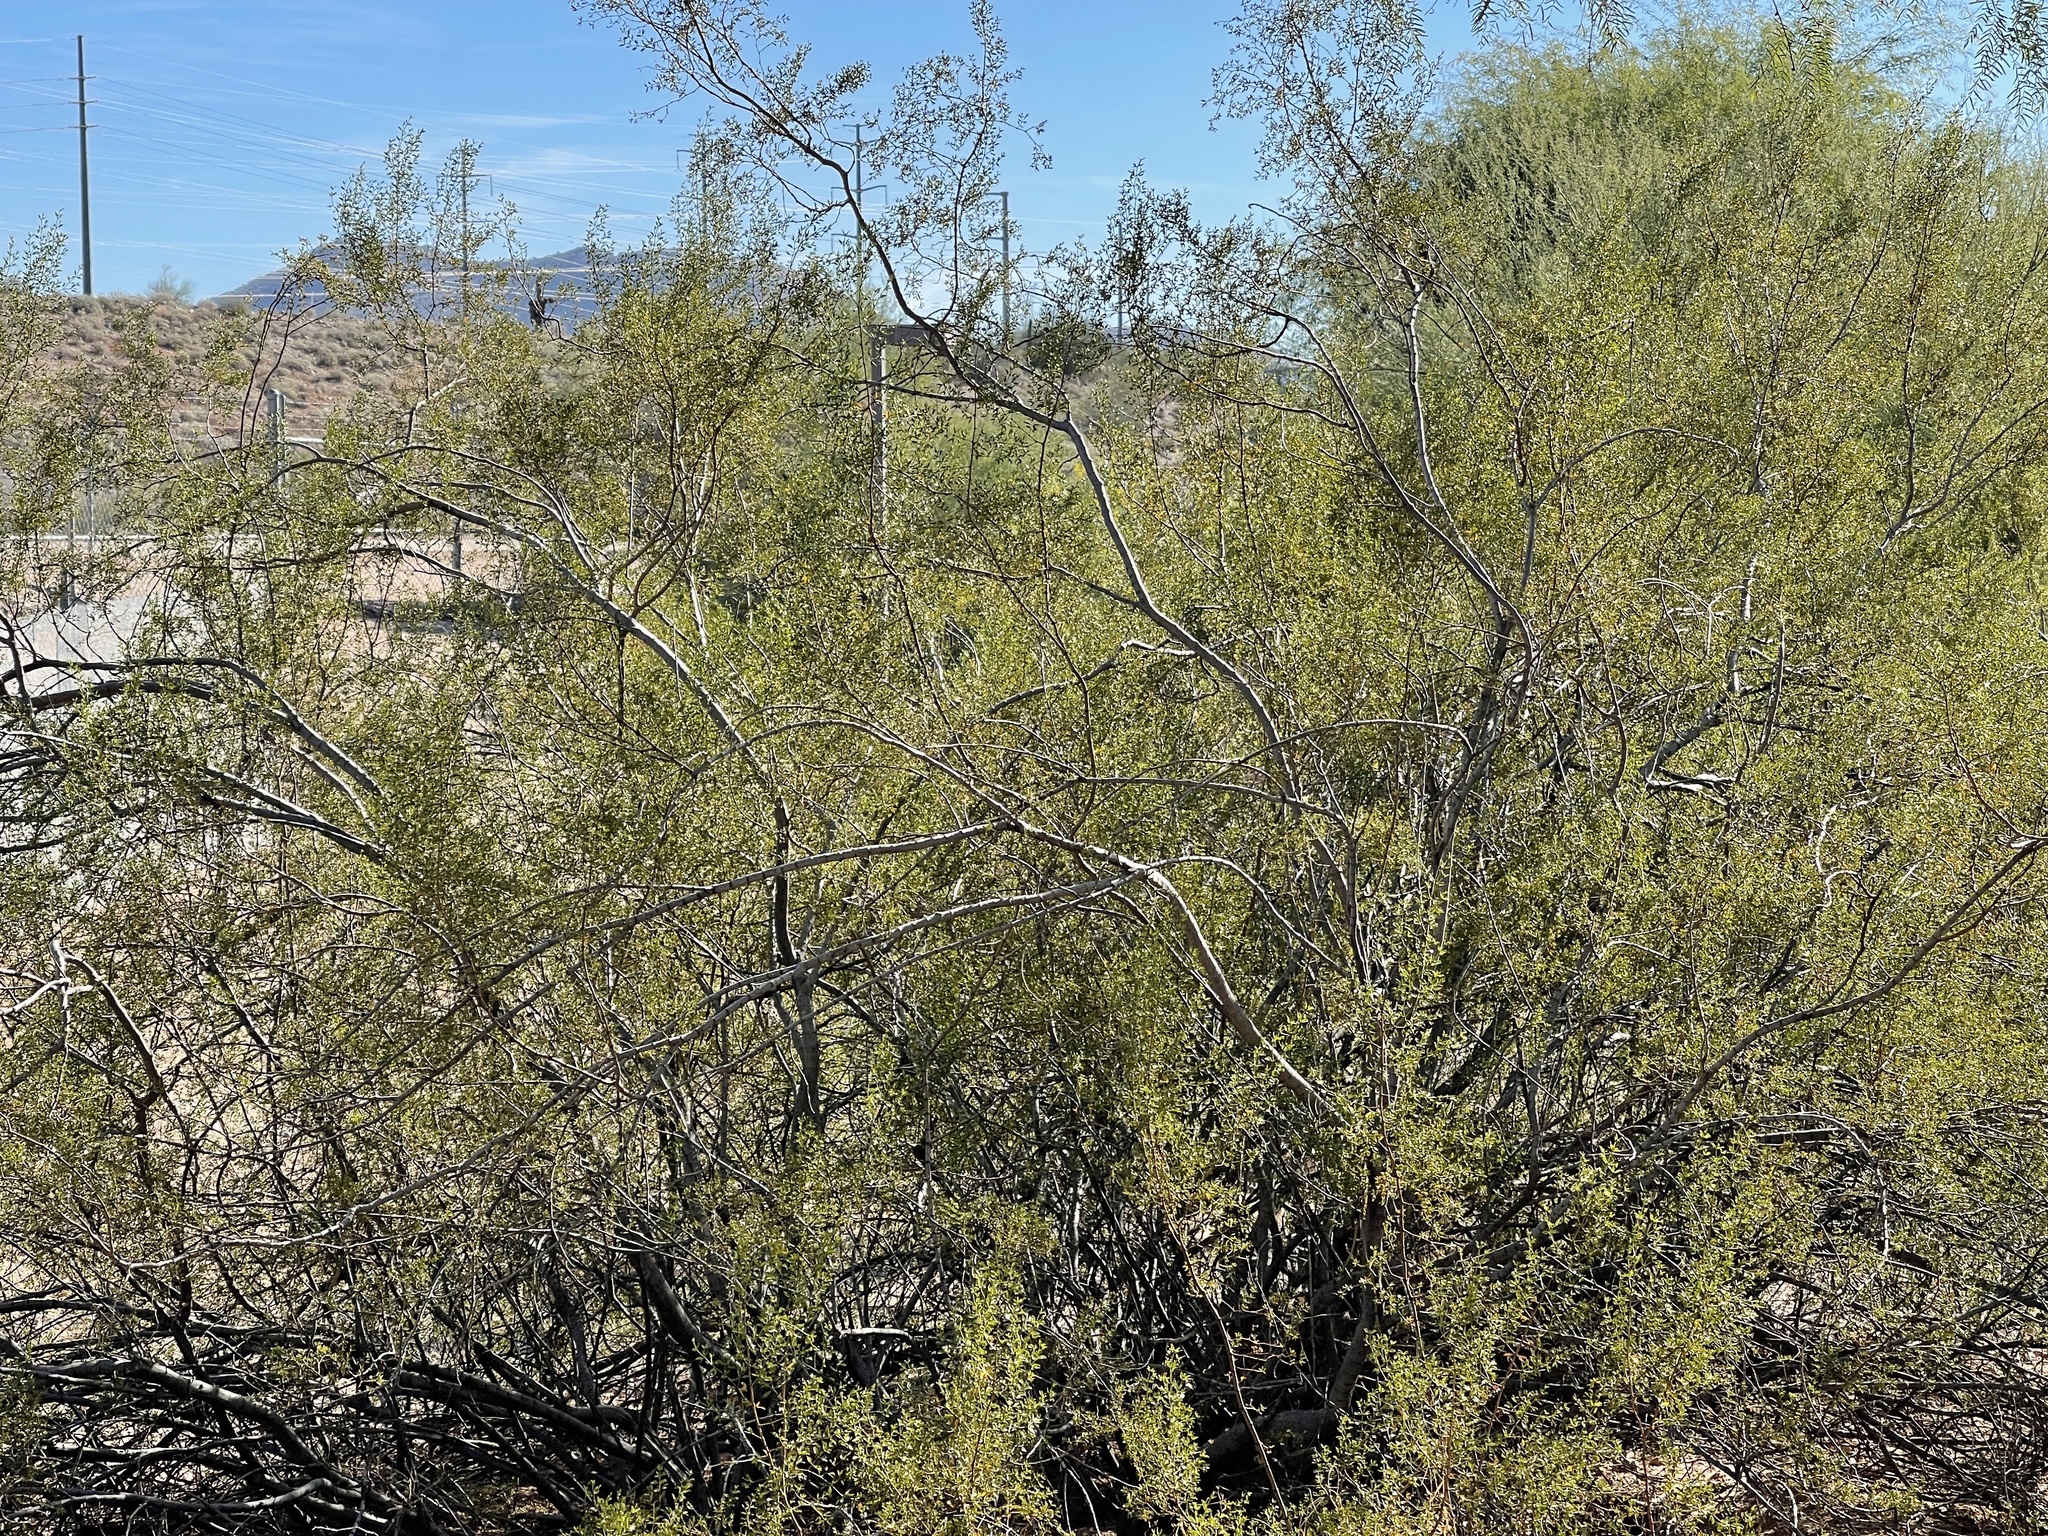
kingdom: Plantae
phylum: Tracheophyta
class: Magnoliopsida
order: Zygophyllales
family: Zygophyllaceae
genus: Larrea
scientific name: Larrea tridentata
